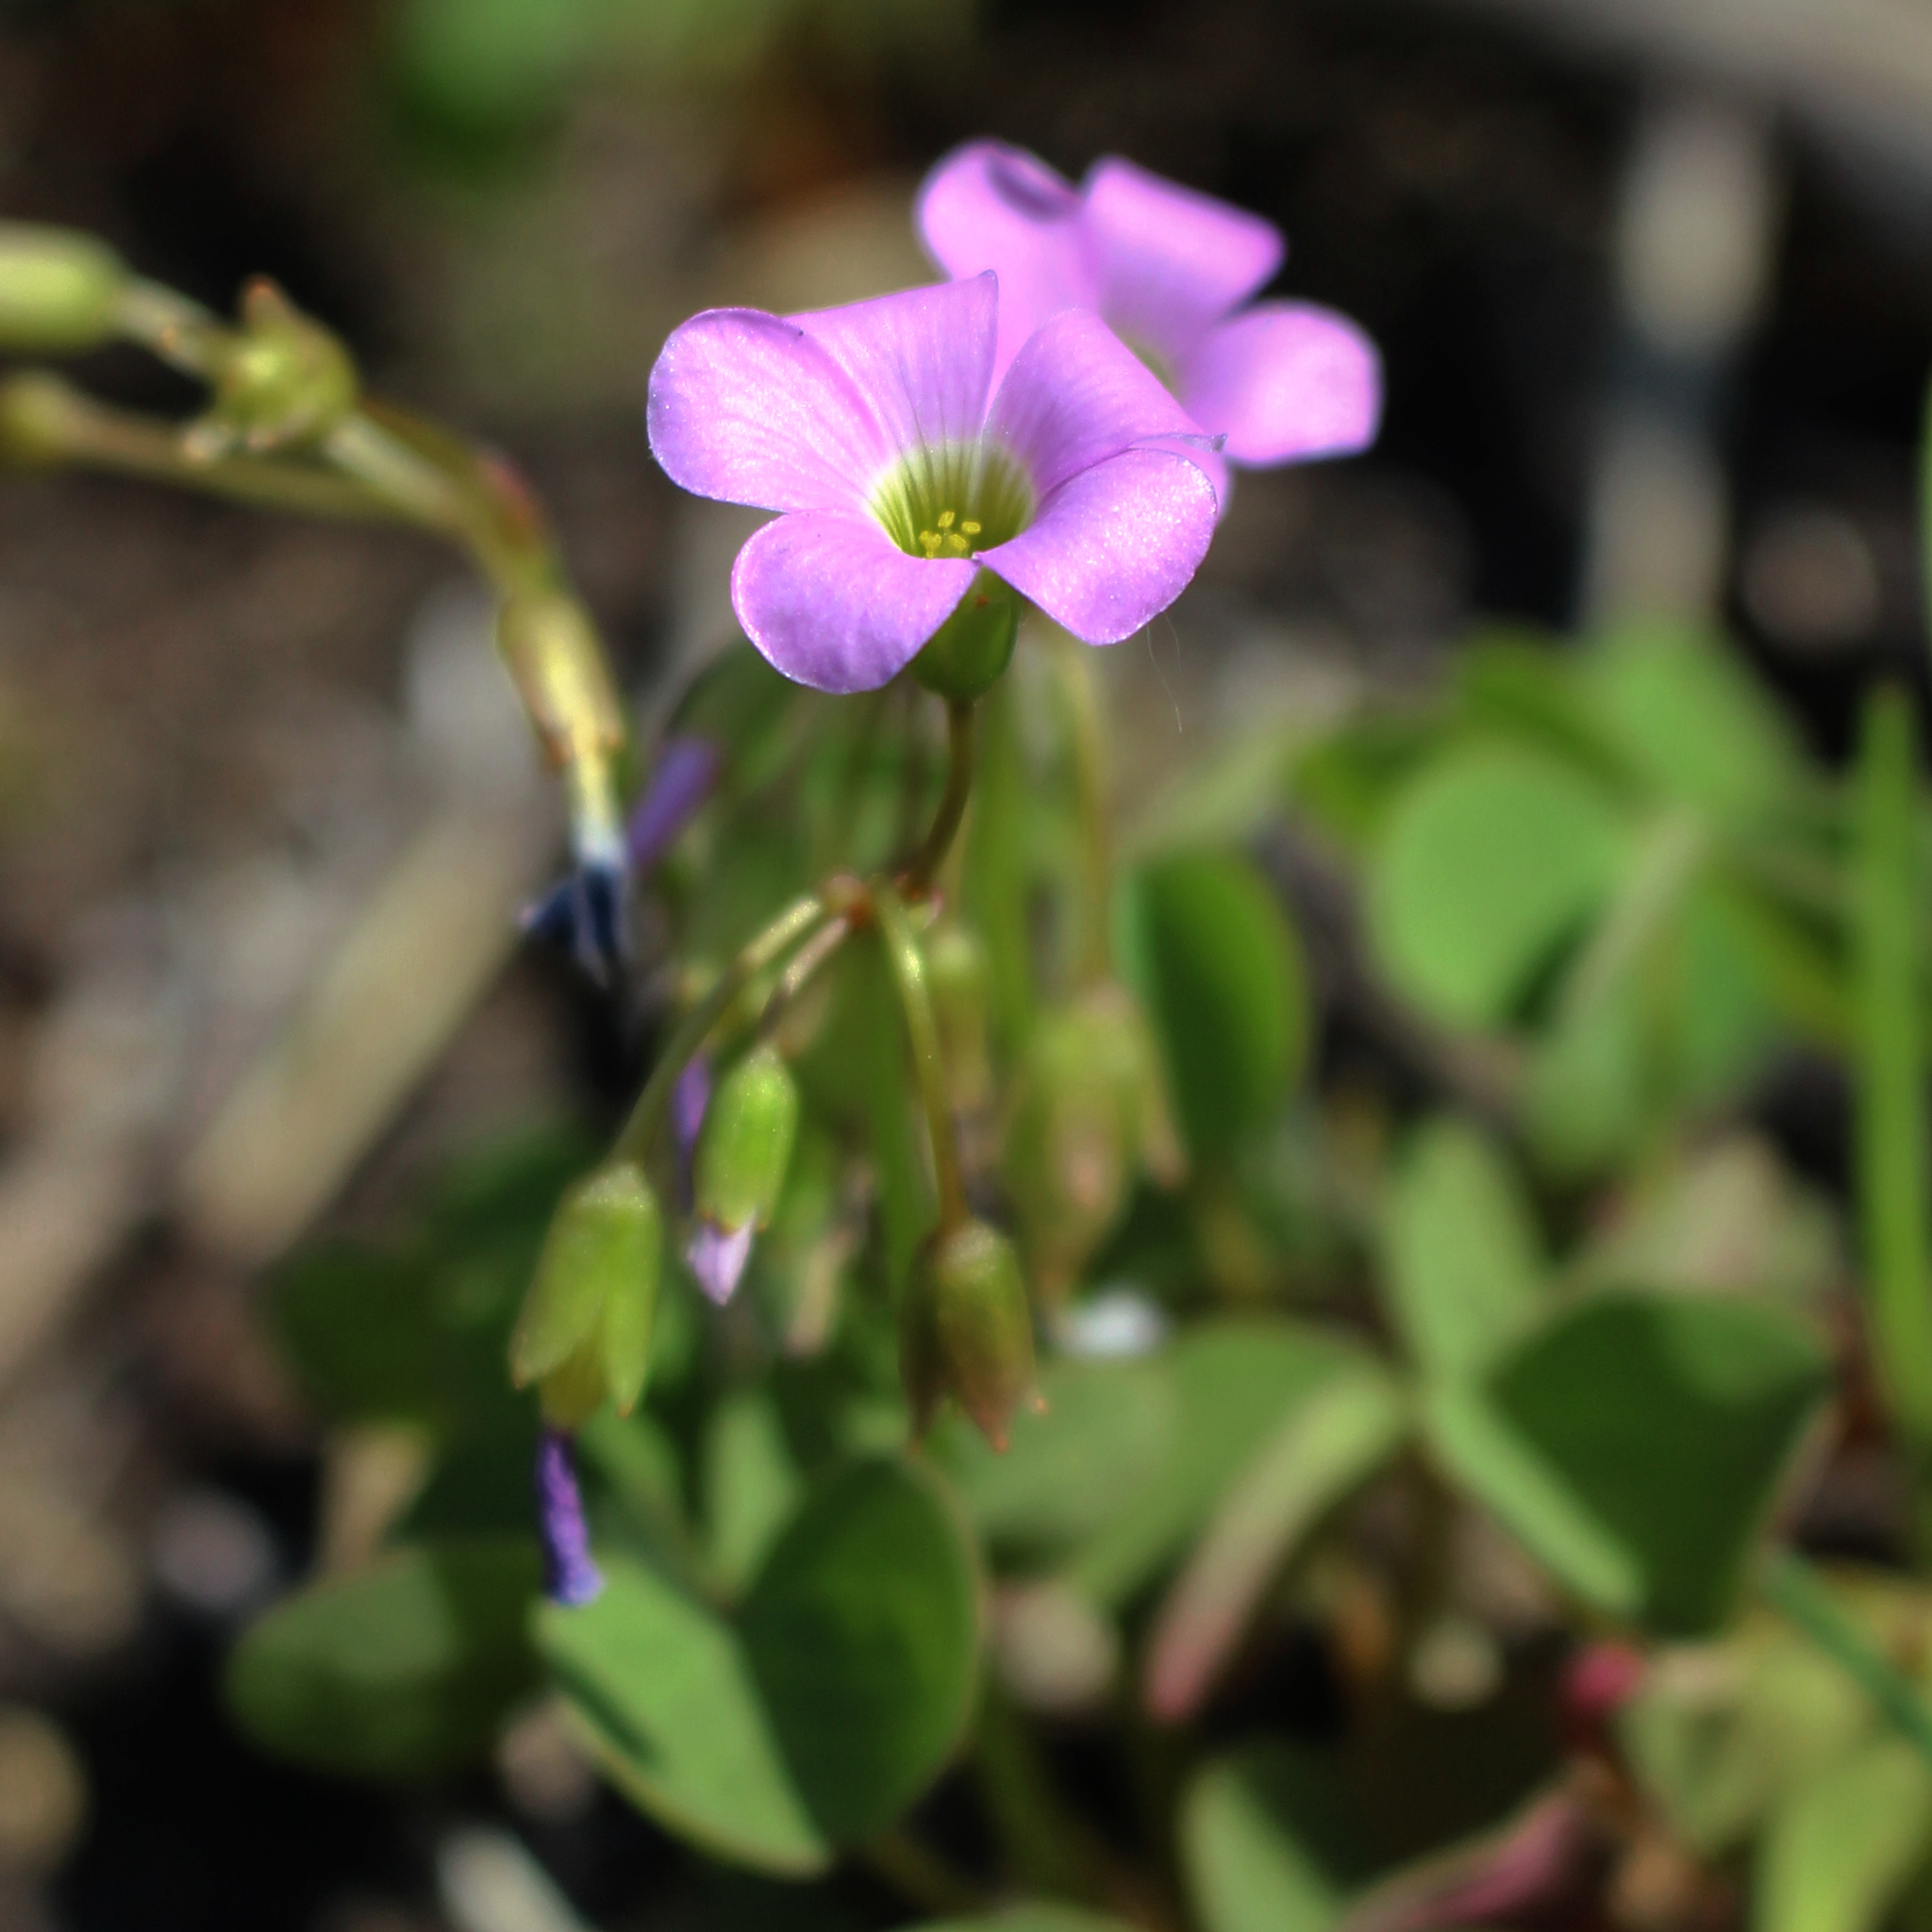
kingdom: Plantae
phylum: Tracheophyta
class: Magnoliopsida
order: Oxalidales
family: Oxalidaceae
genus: Oxalis
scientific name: Oxalis violacea
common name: Violet wood-sorrel
